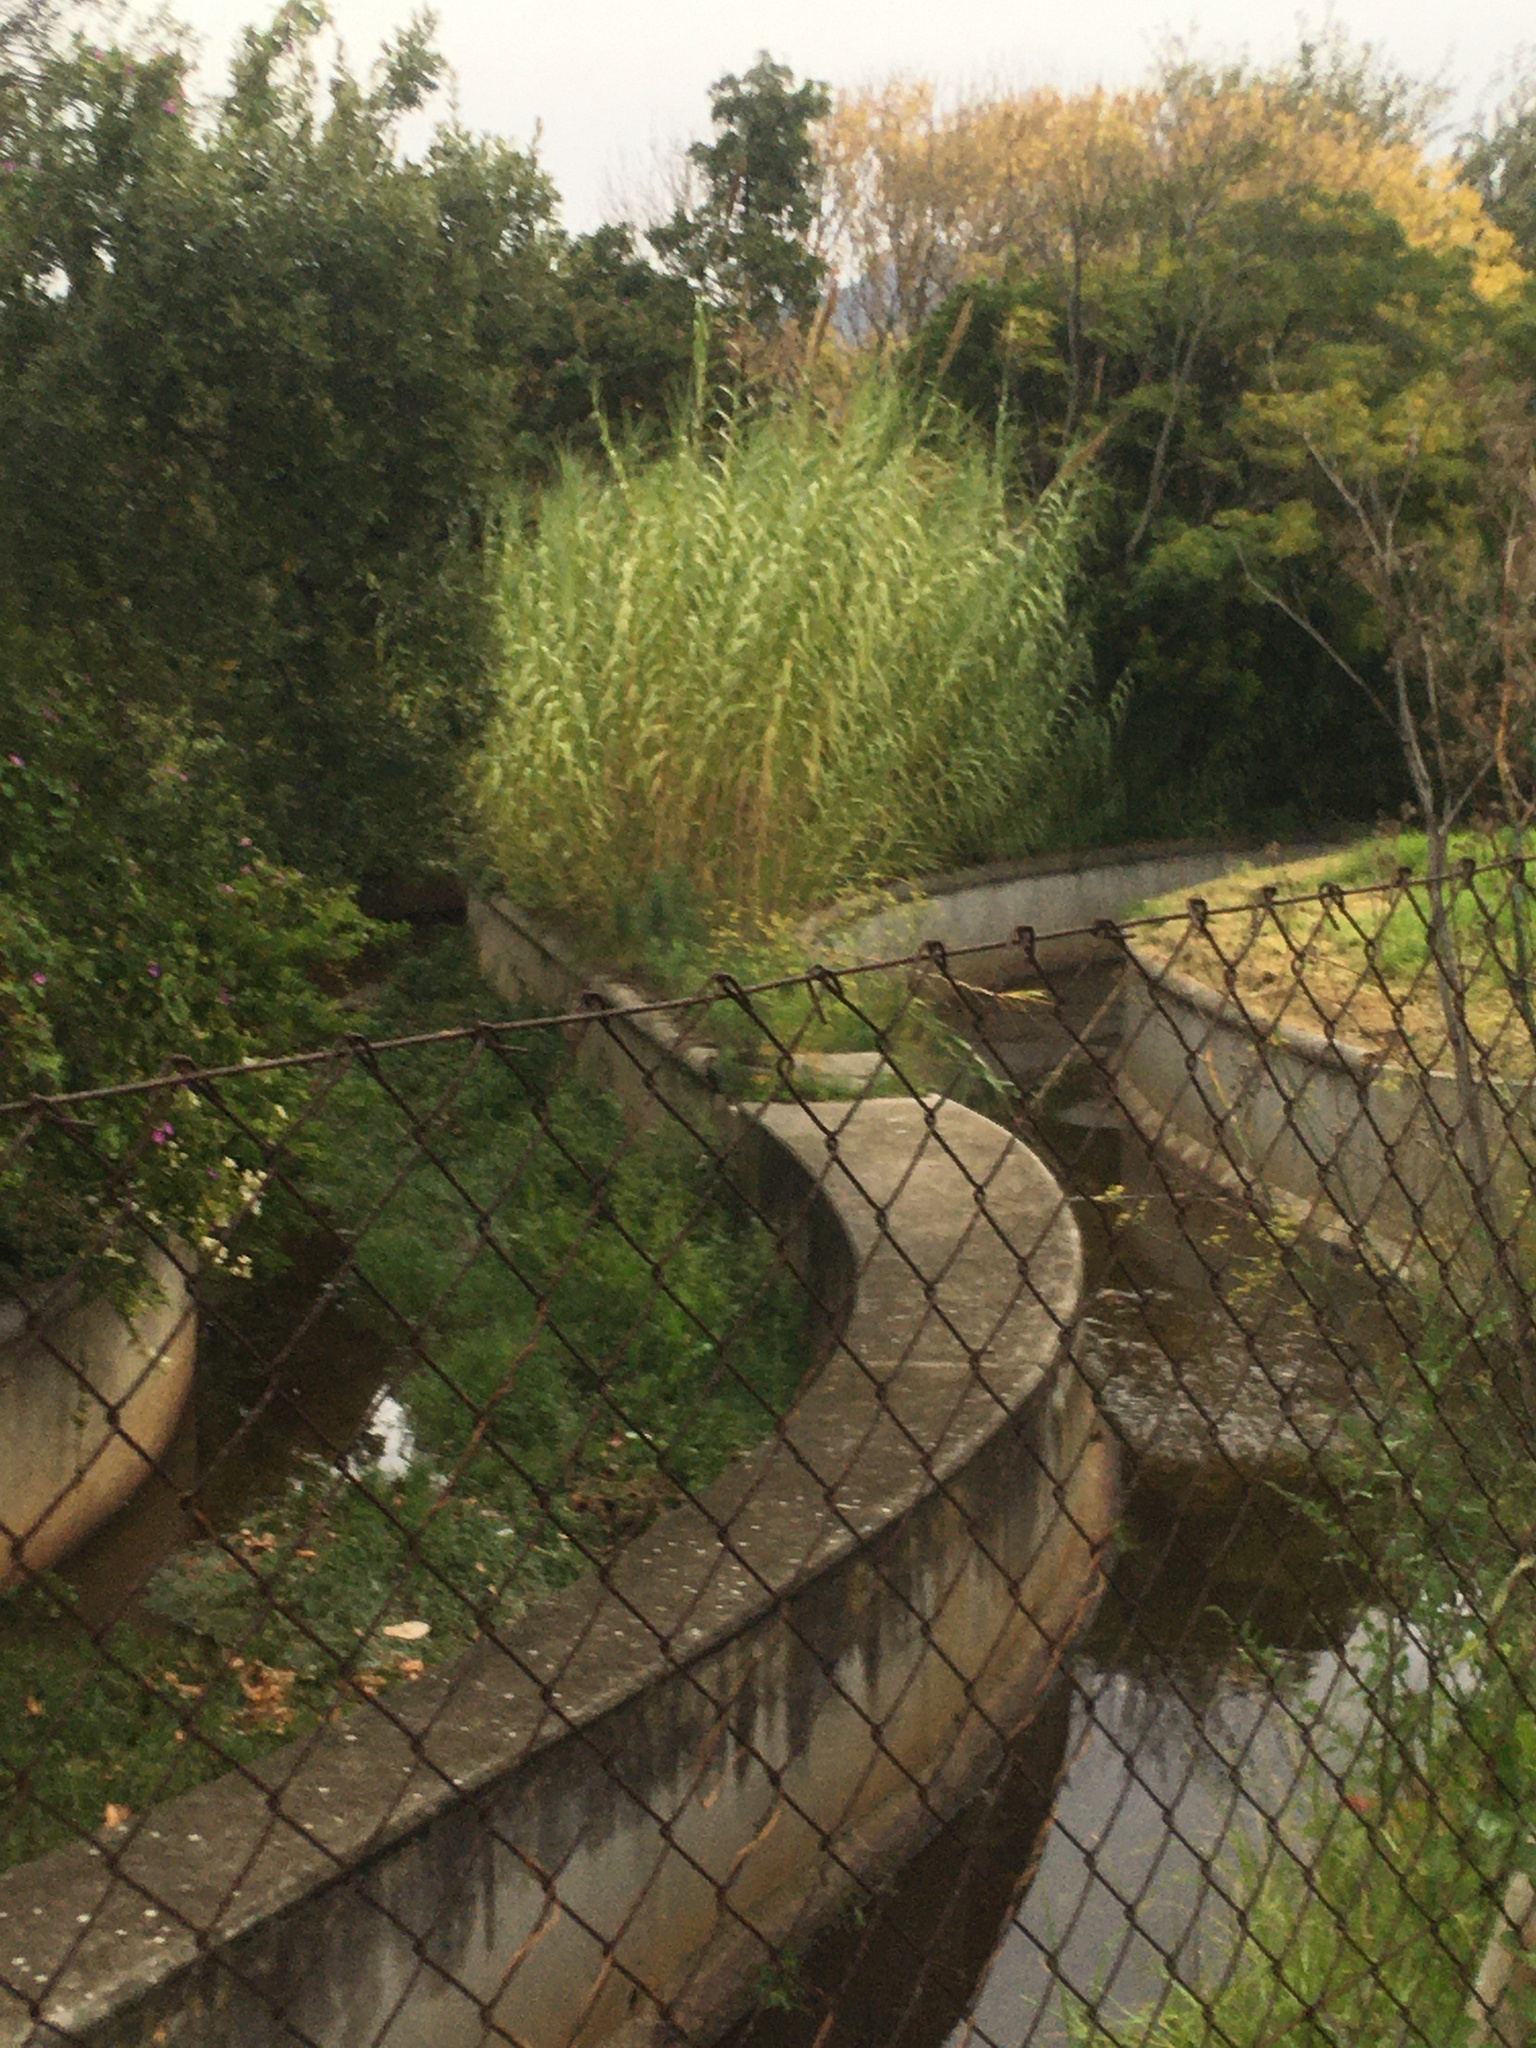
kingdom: Plantae
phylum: Tracheophyta
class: Liliopsida
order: Poales
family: Poaceae
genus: Arundo
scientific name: Arundo donax
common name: Giant reed
